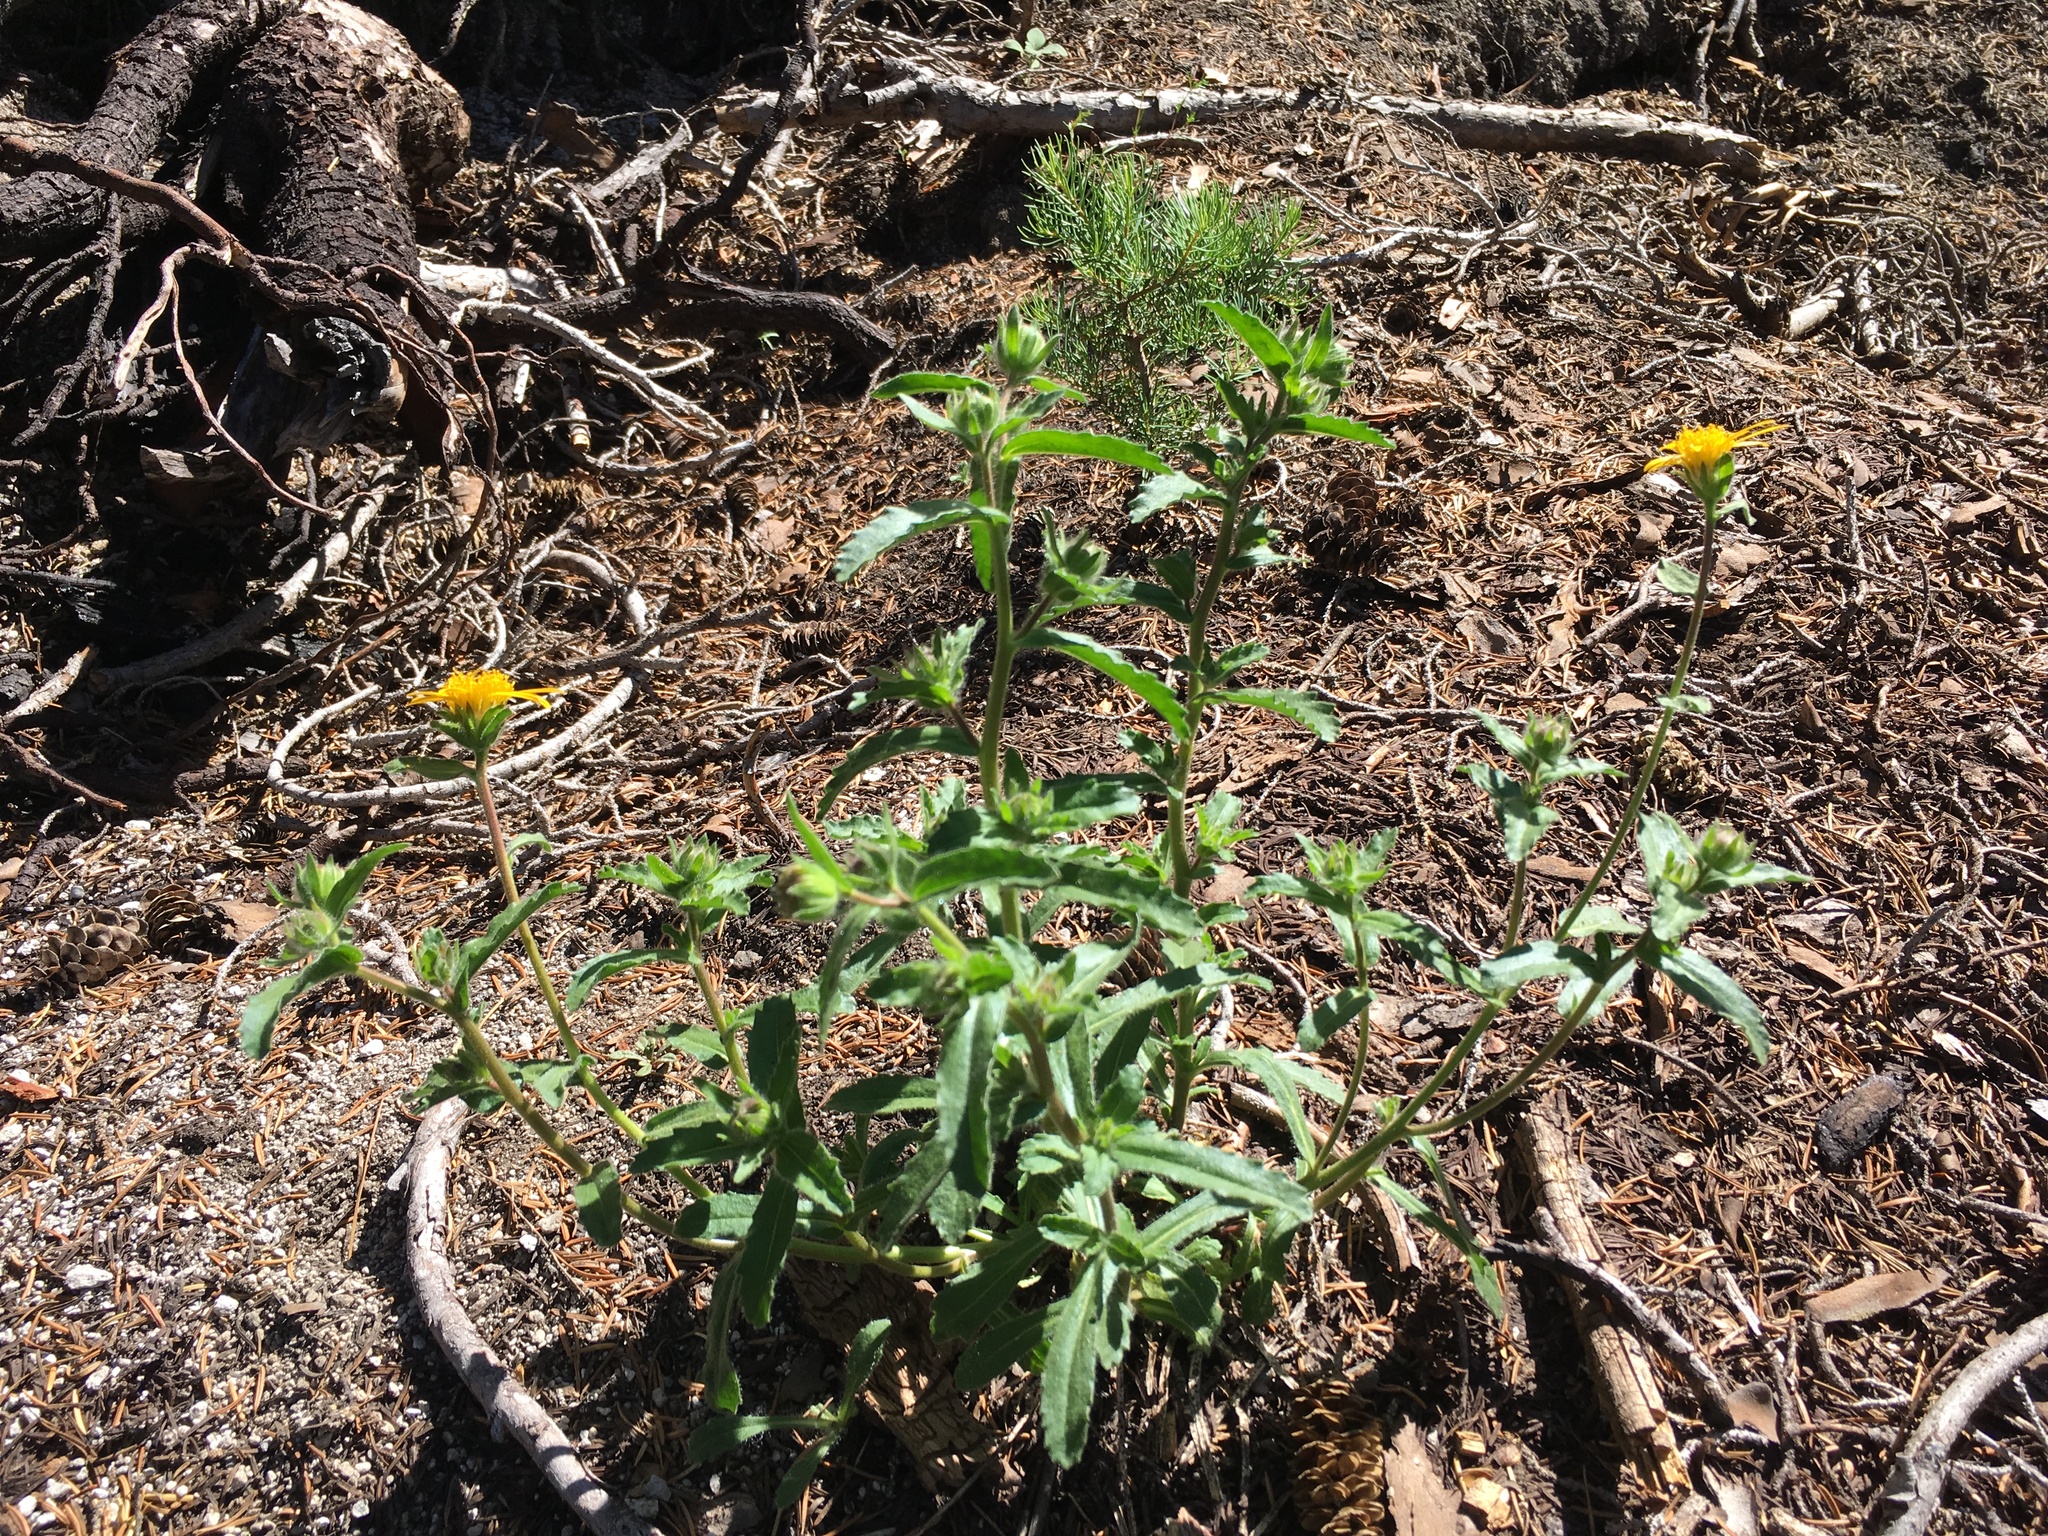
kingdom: Plantae
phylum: Tracheophyta
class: Magnoliopsida
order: Asterales
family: Asteraceae
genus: Hulsea
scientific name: Hulsea brevifolia
